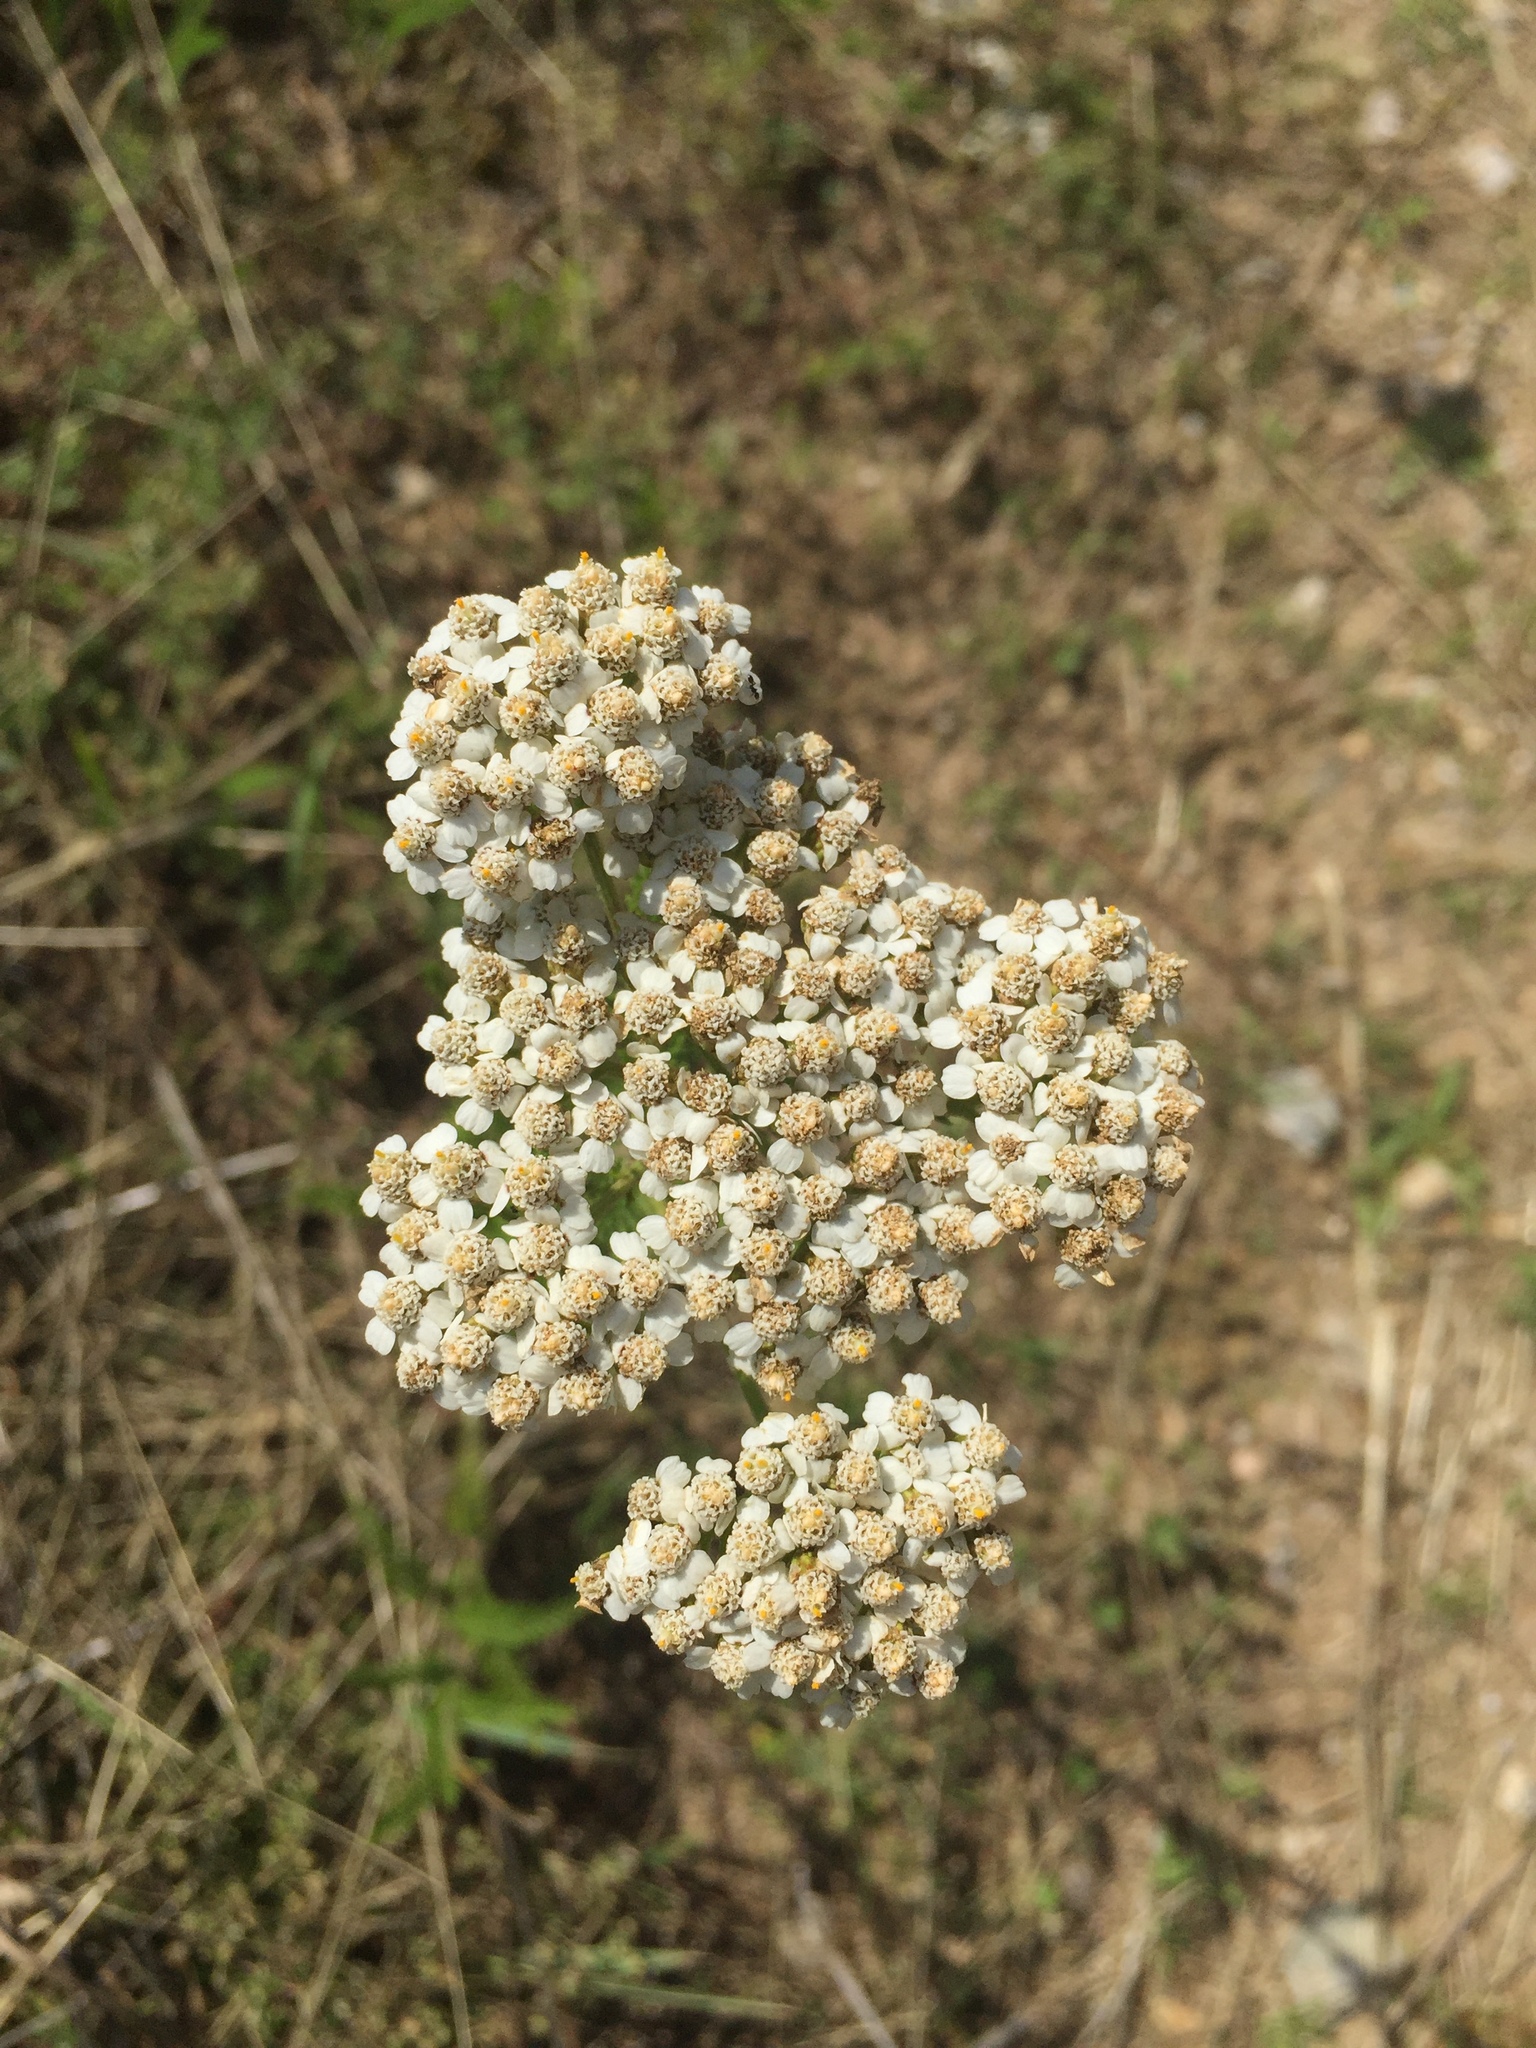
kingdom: Plantae
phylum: Tracheophyta
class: Magnoliopsida
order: Asterales
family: Asteraceae
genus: Achillea
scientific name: Achillea millefolium
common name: Yarrow
